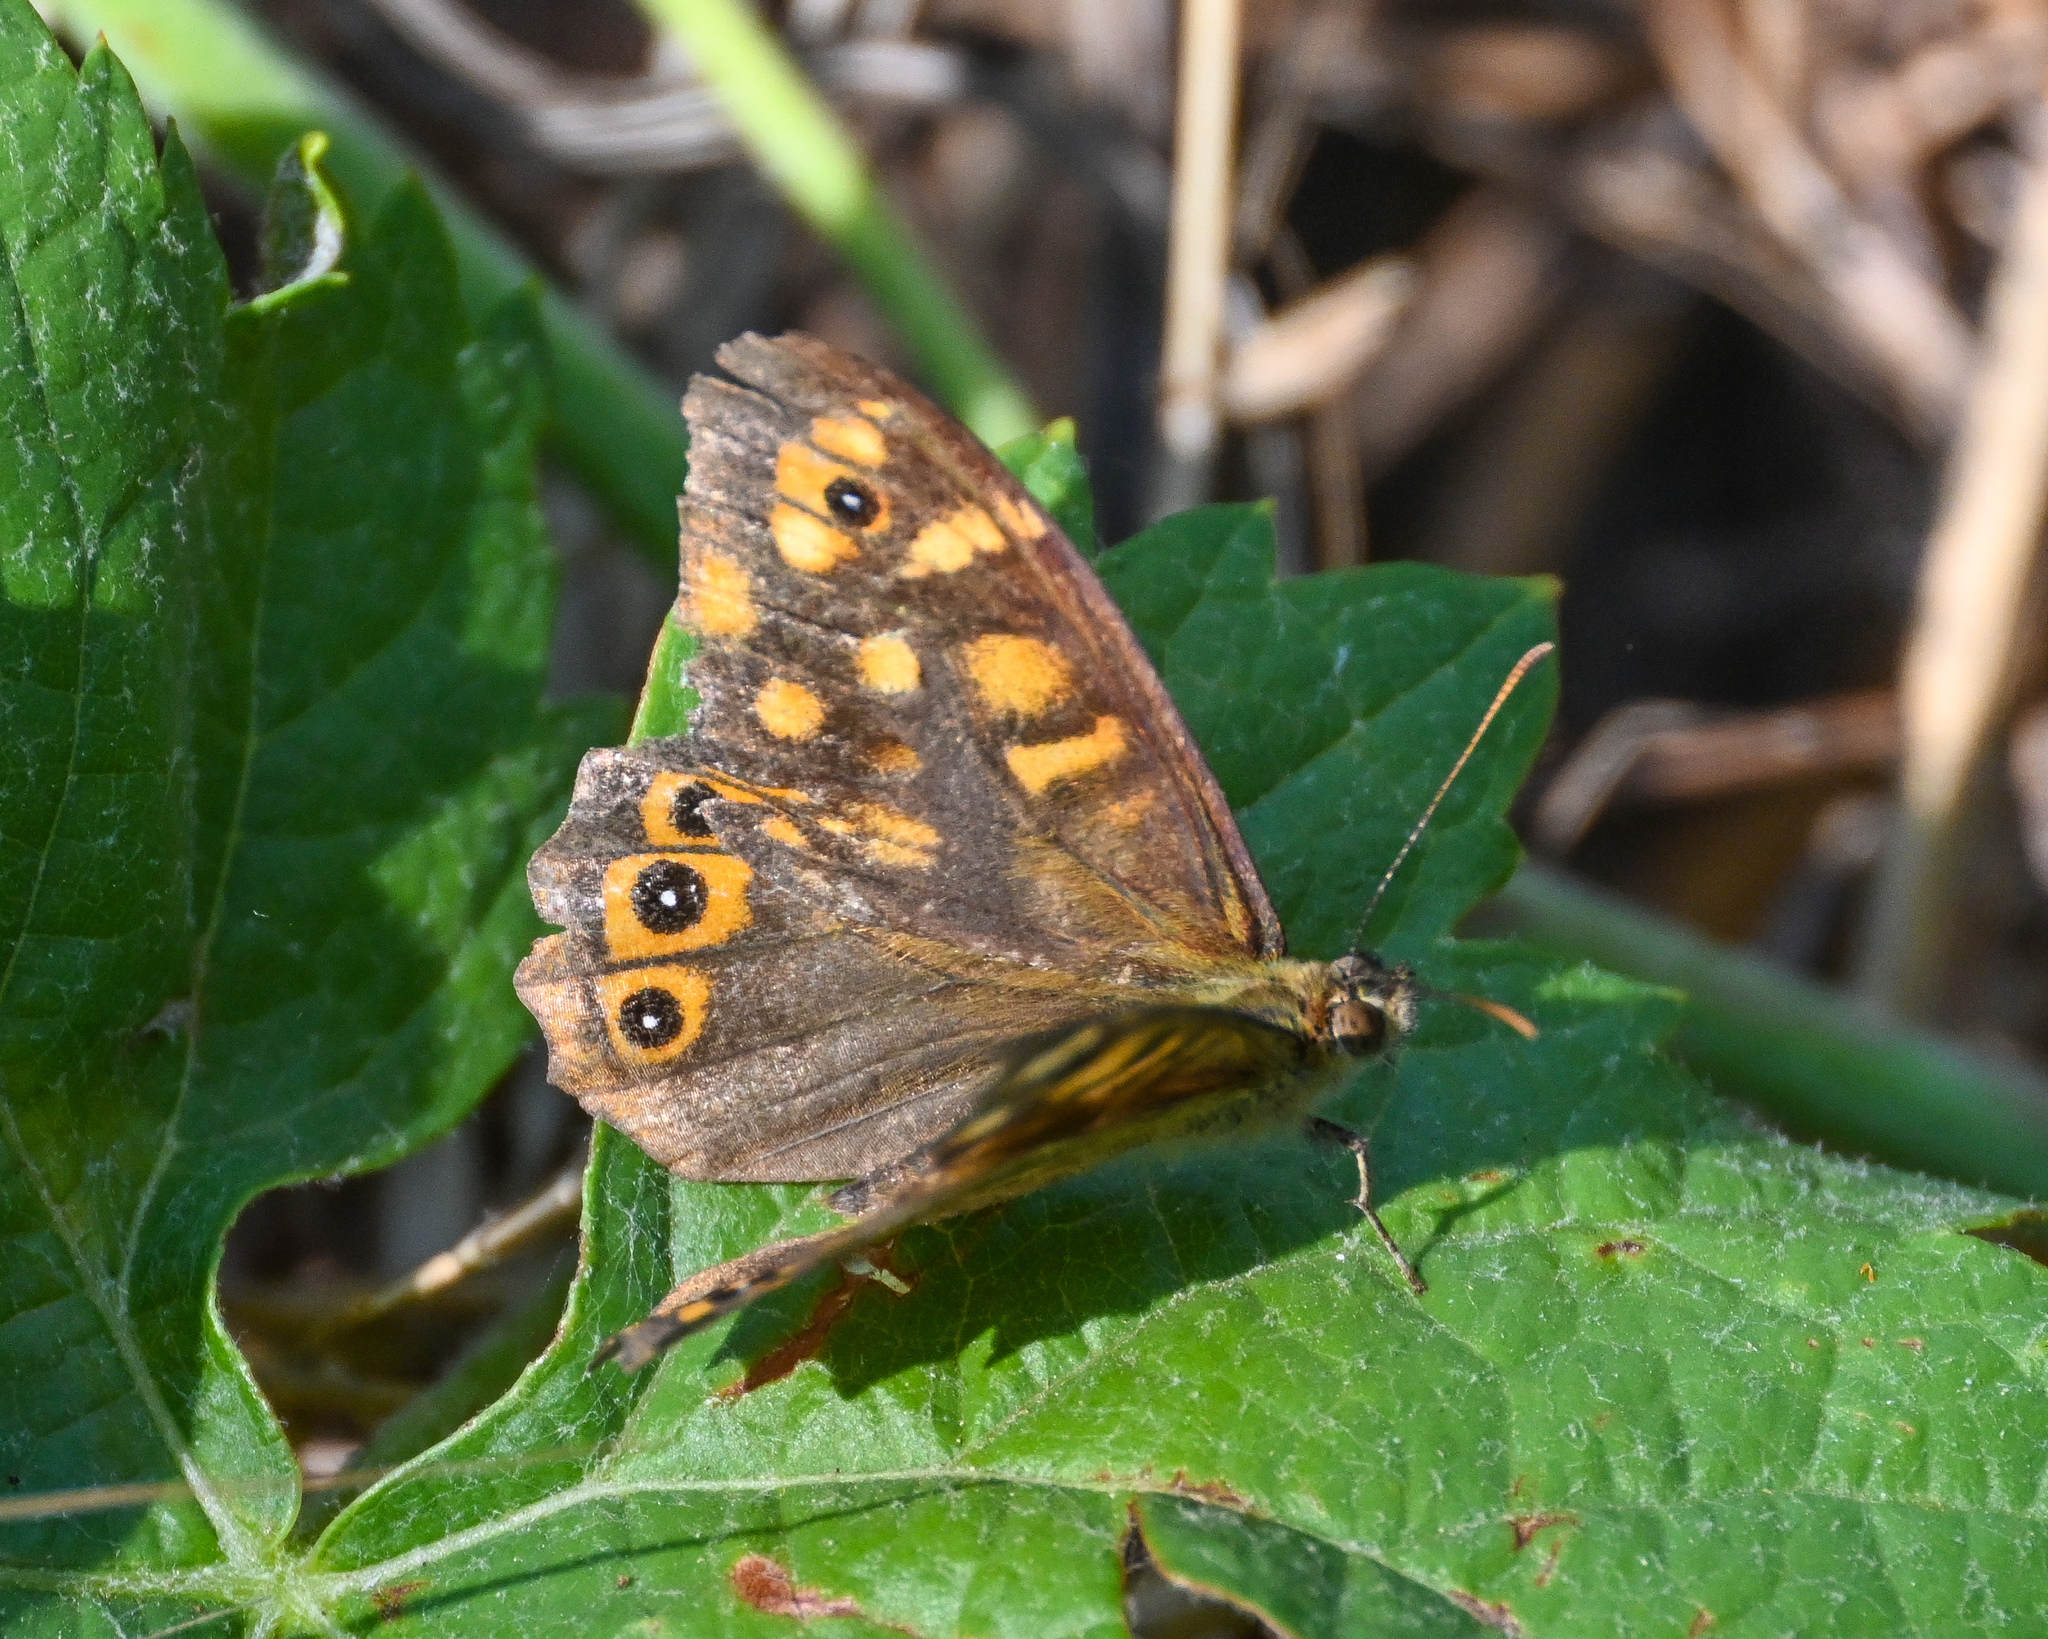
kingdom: Animalia
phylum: Arthropoda
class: Insecta
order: Lepidoptera
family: Nymphalidae
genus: Pararge
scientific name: Pararge aegeria
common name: Speckled wood
